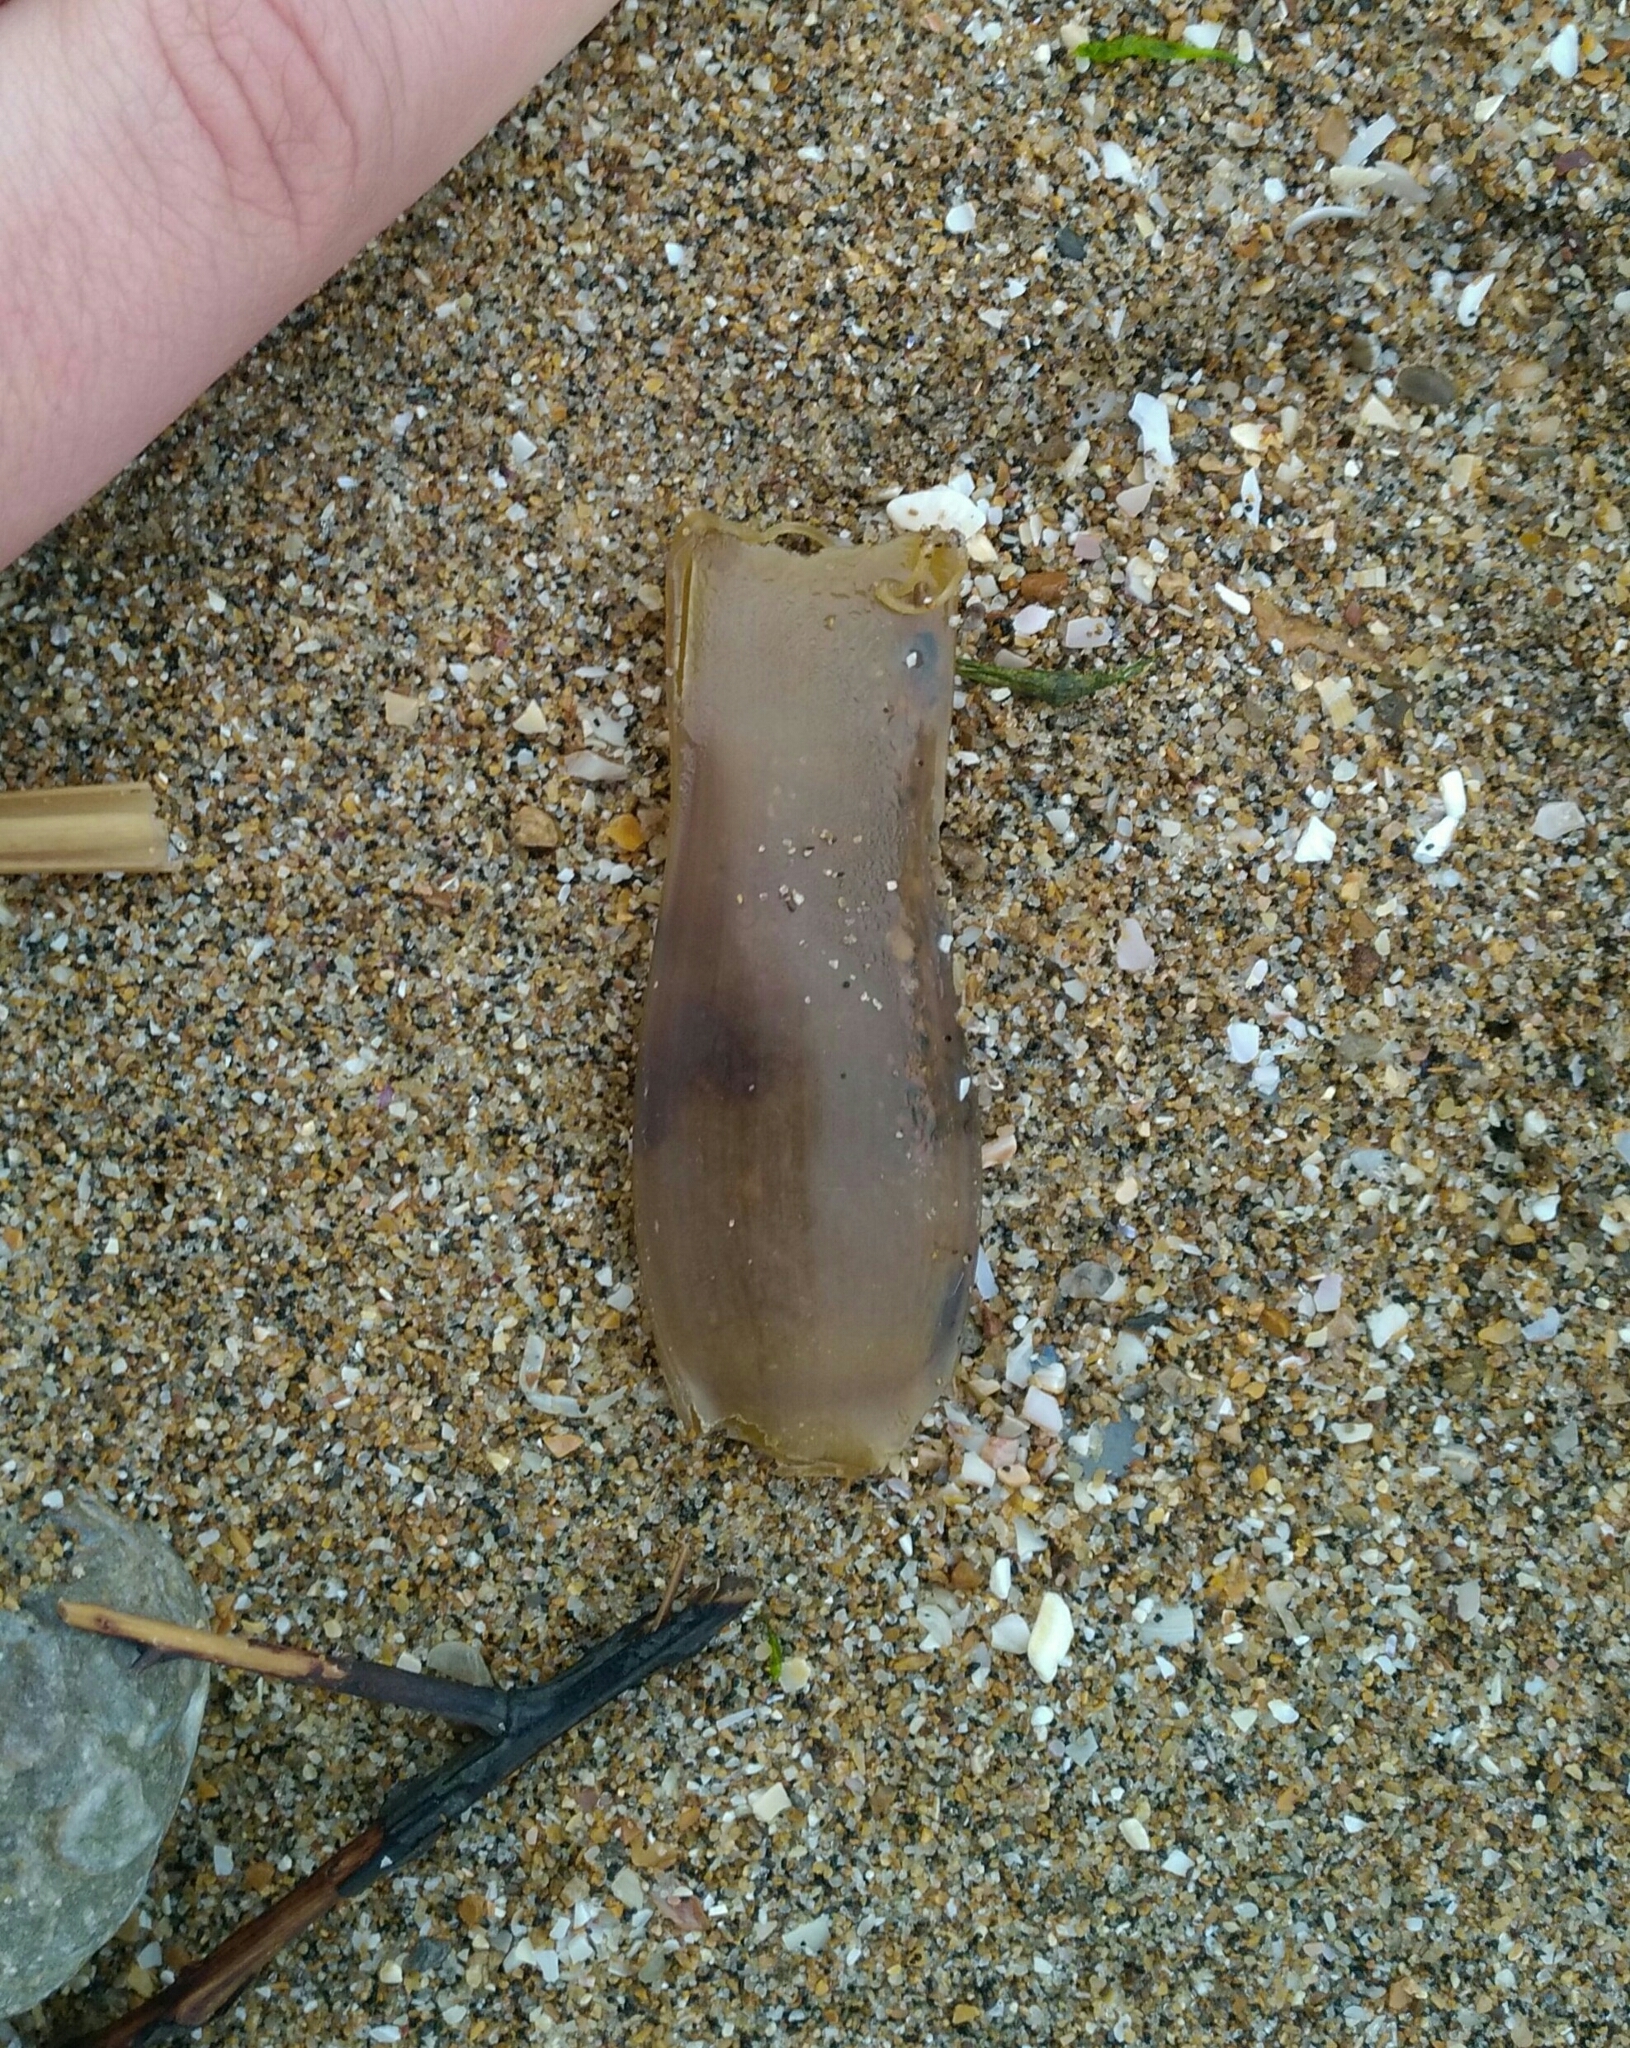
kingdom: Animalia
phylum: Chordata
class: Elasmobranchii
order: Carcharhiniformes
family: Scyliorhinidae
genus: Scyliorhinus
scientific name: Scyliorhinus canicula
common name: Lesser spotted dogfish
